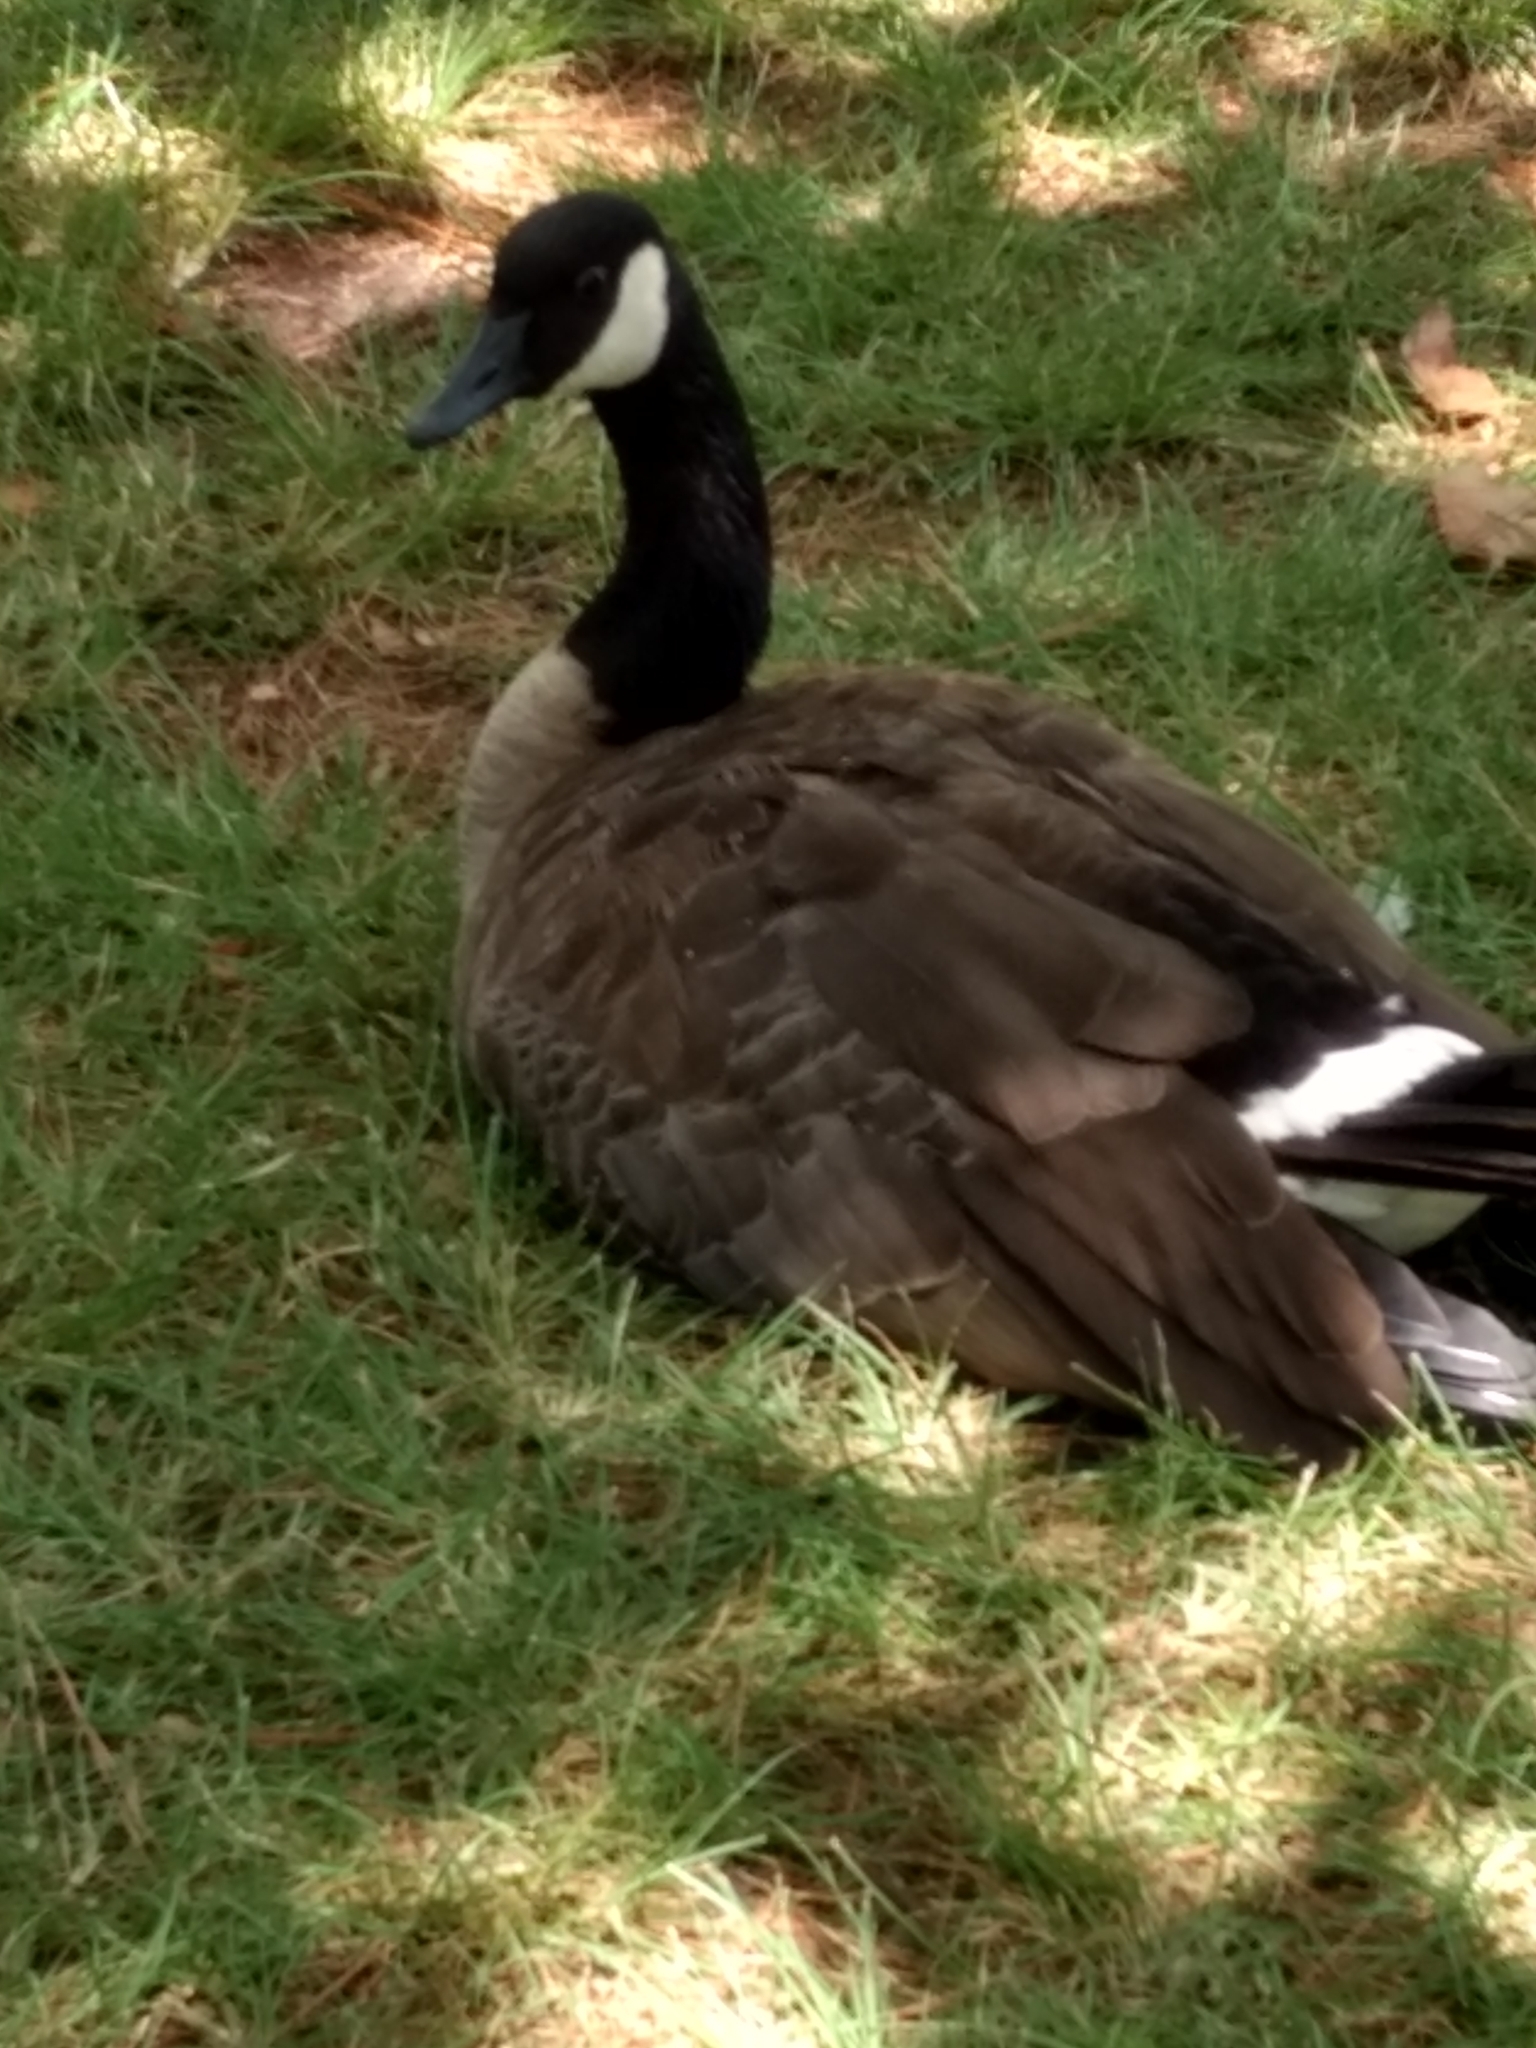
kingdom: Animalia
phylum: Chordata
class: Aves
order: Anseriformes
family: Anatidae
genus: Branta
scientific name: Branta canadensis
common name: Canada goose
